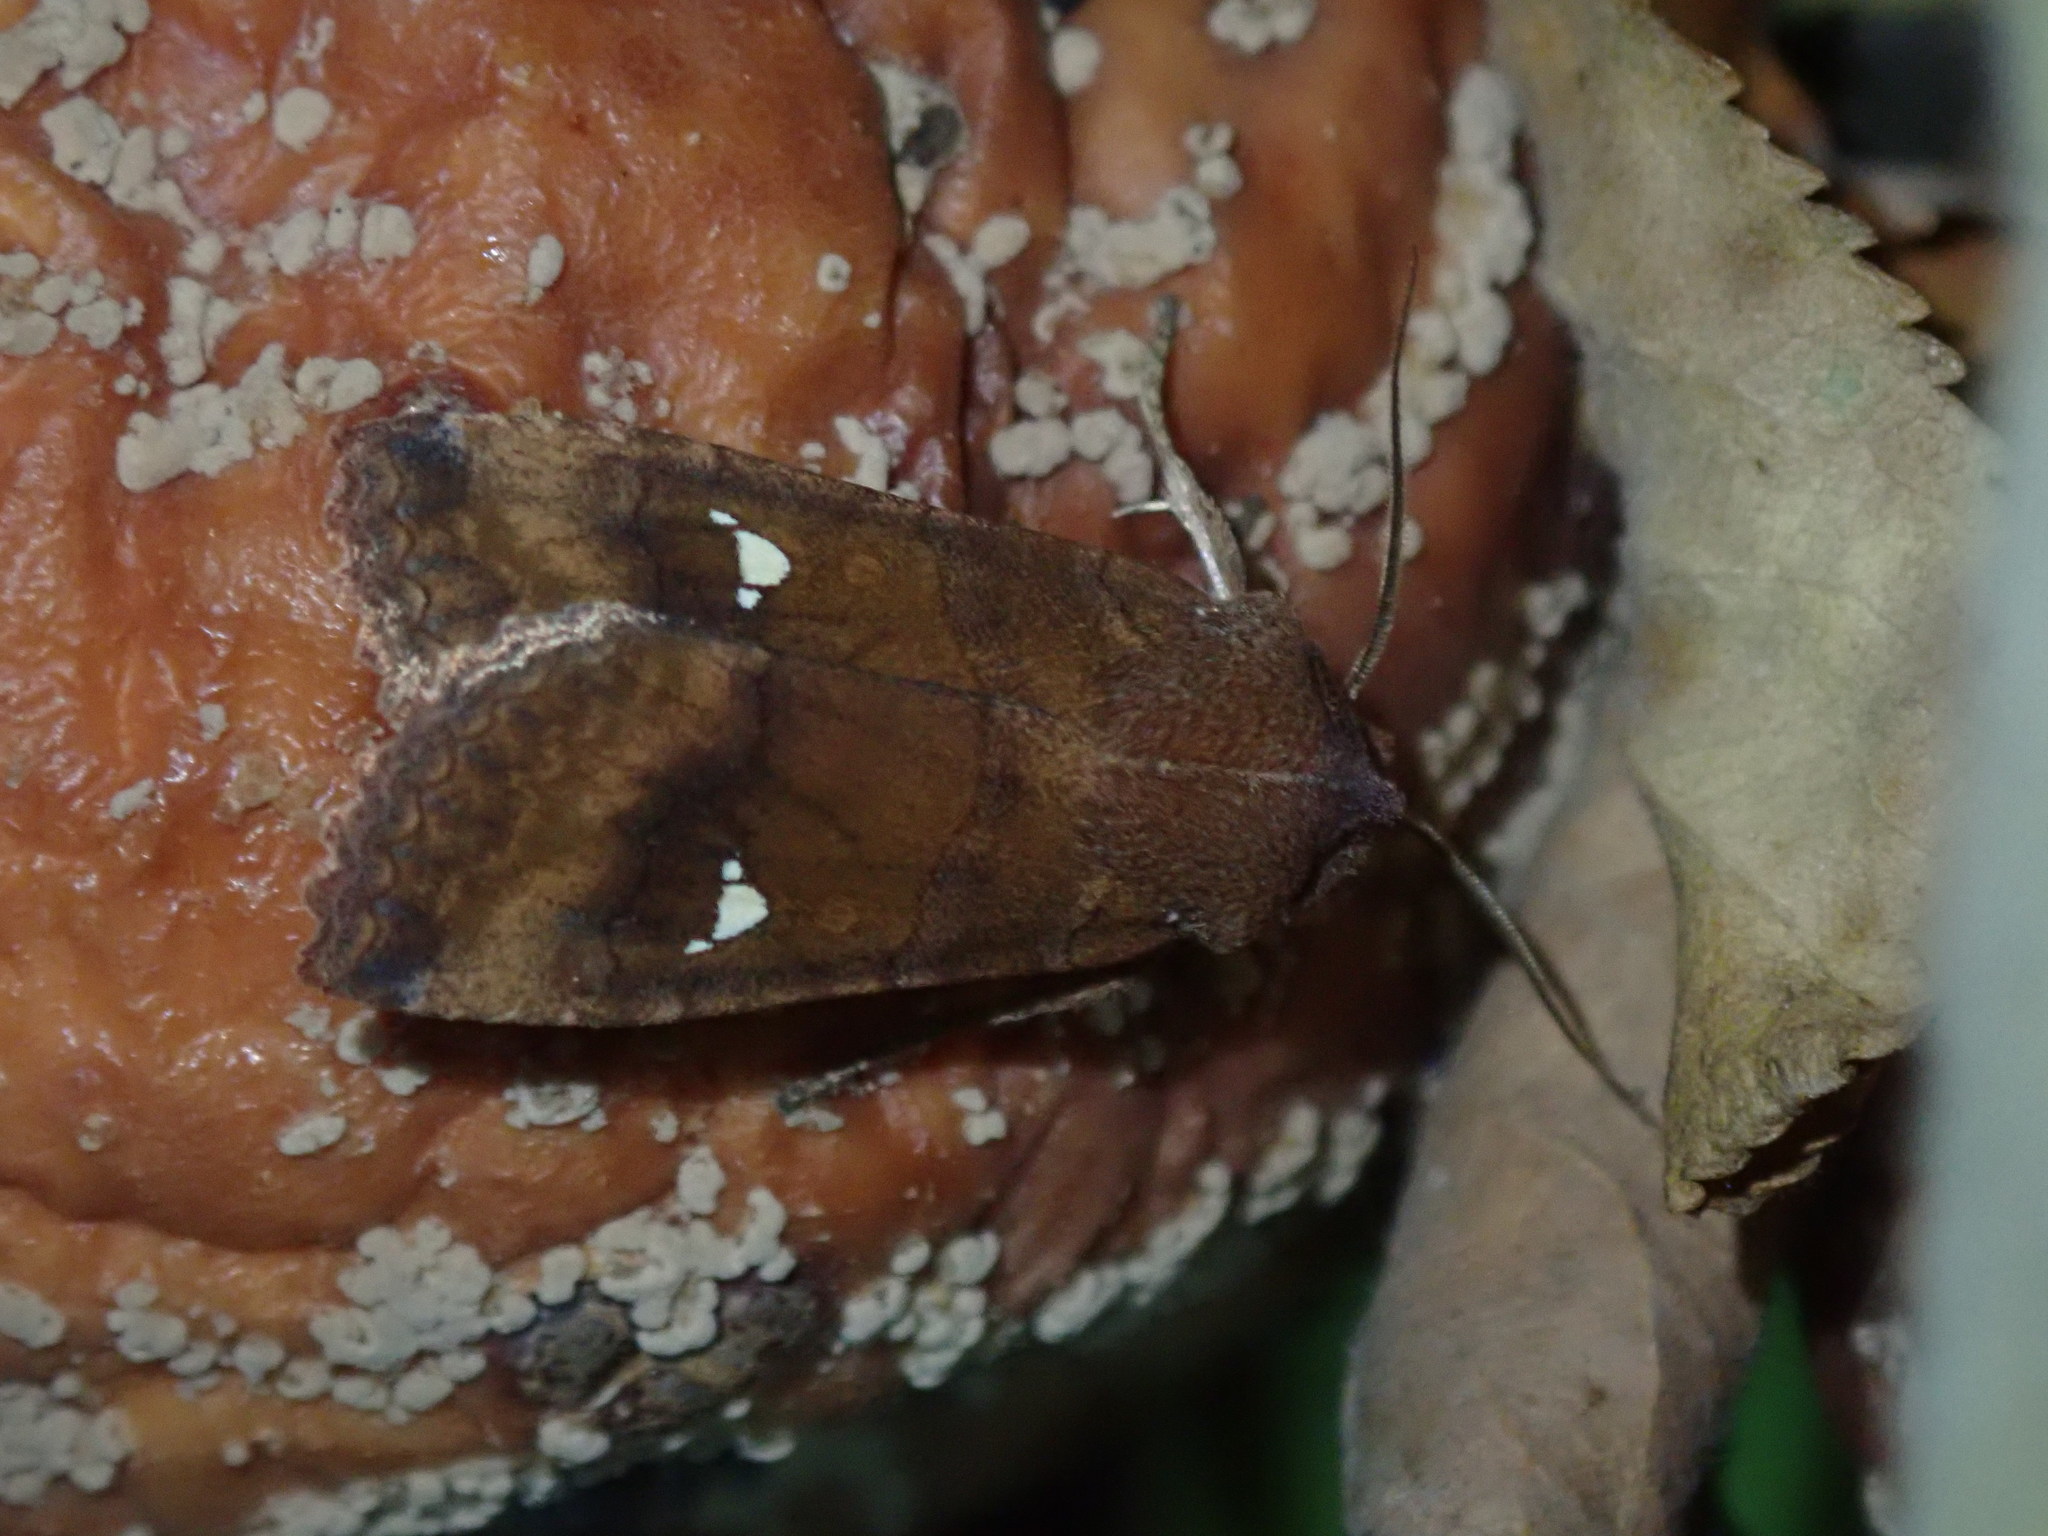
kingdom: Animalia
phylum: Arthropoda
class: Insecta
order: Lepidoptera
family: Noctuidae
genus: Eupsilia
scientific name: Eupsilia transversa
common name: Satellite
